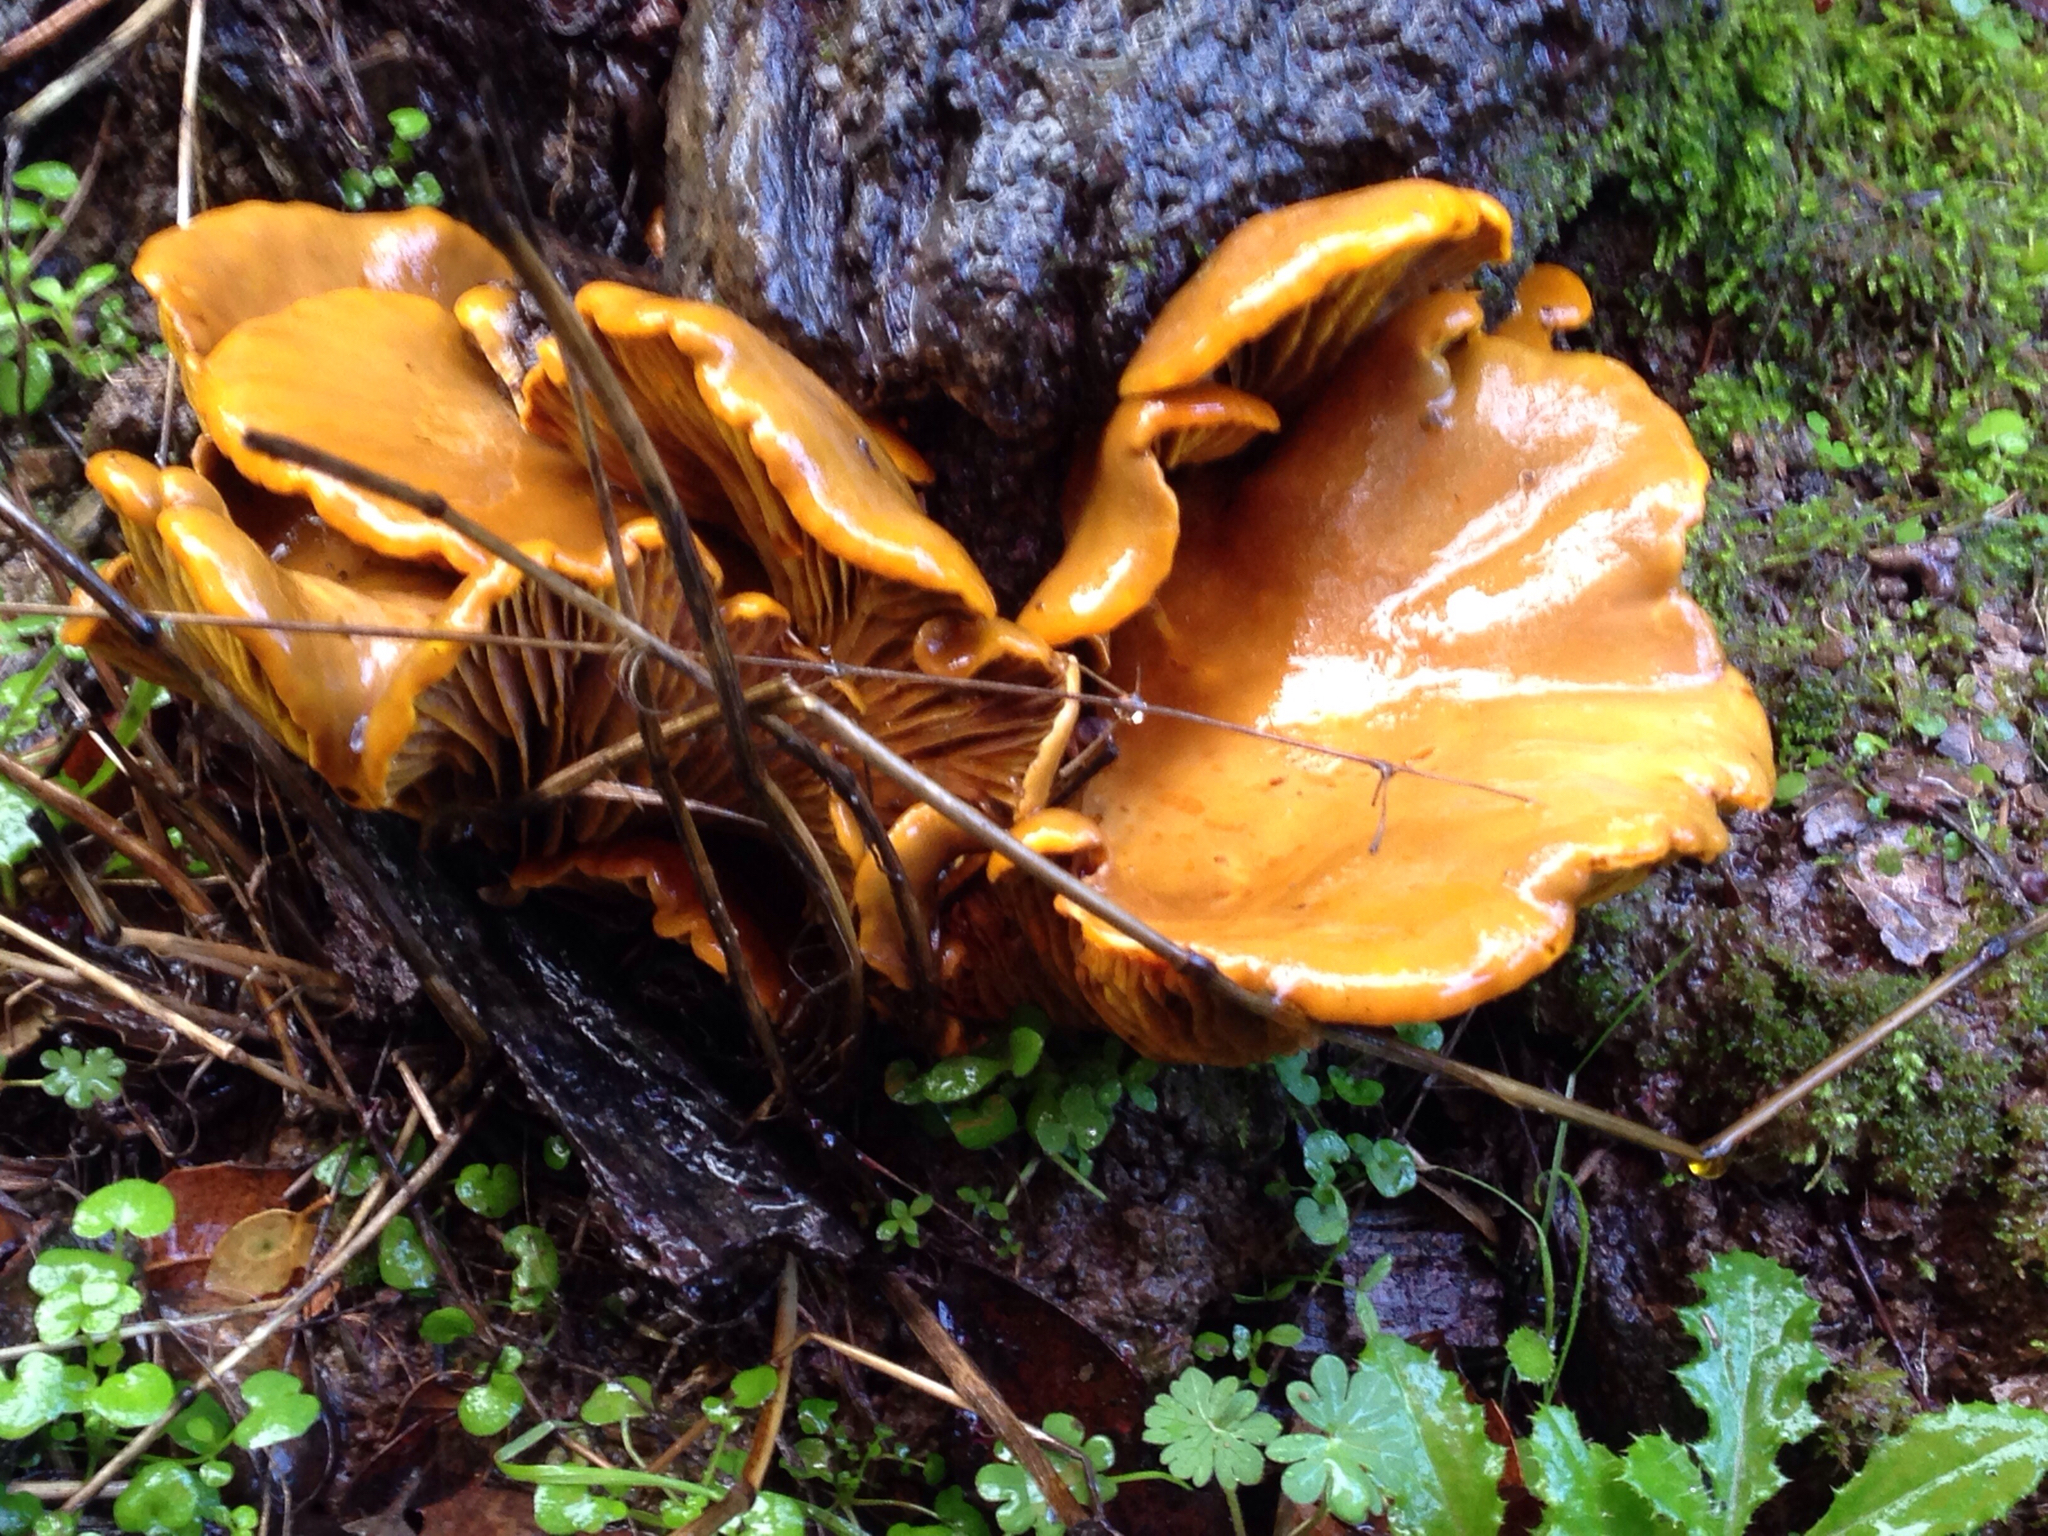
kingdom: Fungi
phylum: Basidiomycota
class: Agaricomycetes
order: Agaricales
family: Omphalotaceae
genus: Omphalotus
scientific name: Omphalotus olivascens
